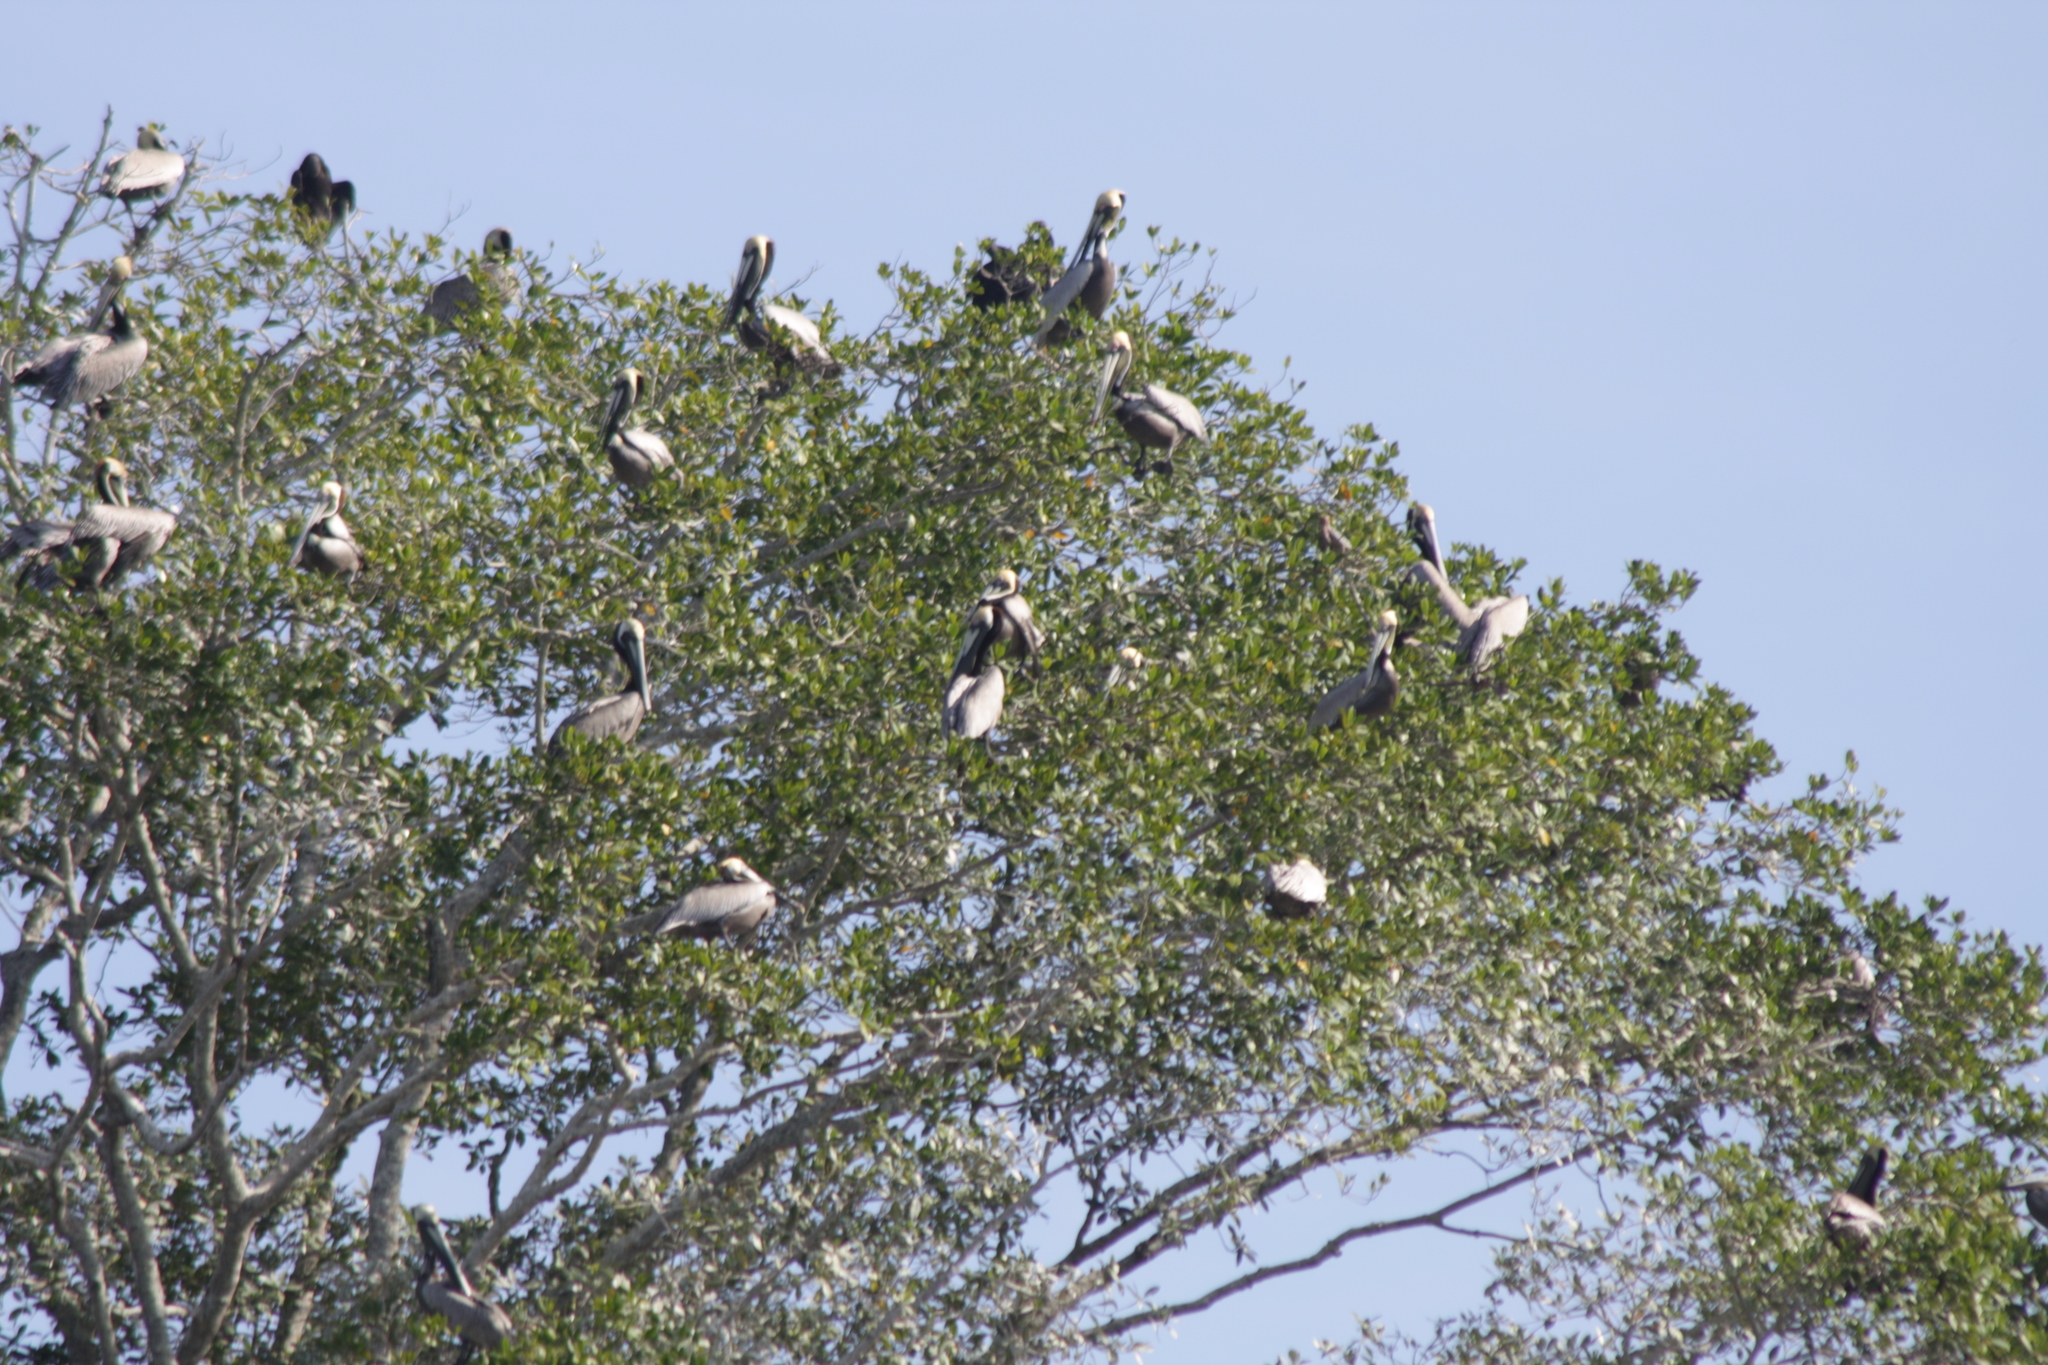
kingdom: Animalia
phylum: Chordata
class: Aves
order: Pelecaniformes
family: Pelecanidae
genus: Pelecanus
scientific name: Pelecanus occidentalis
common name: Brown pelican
